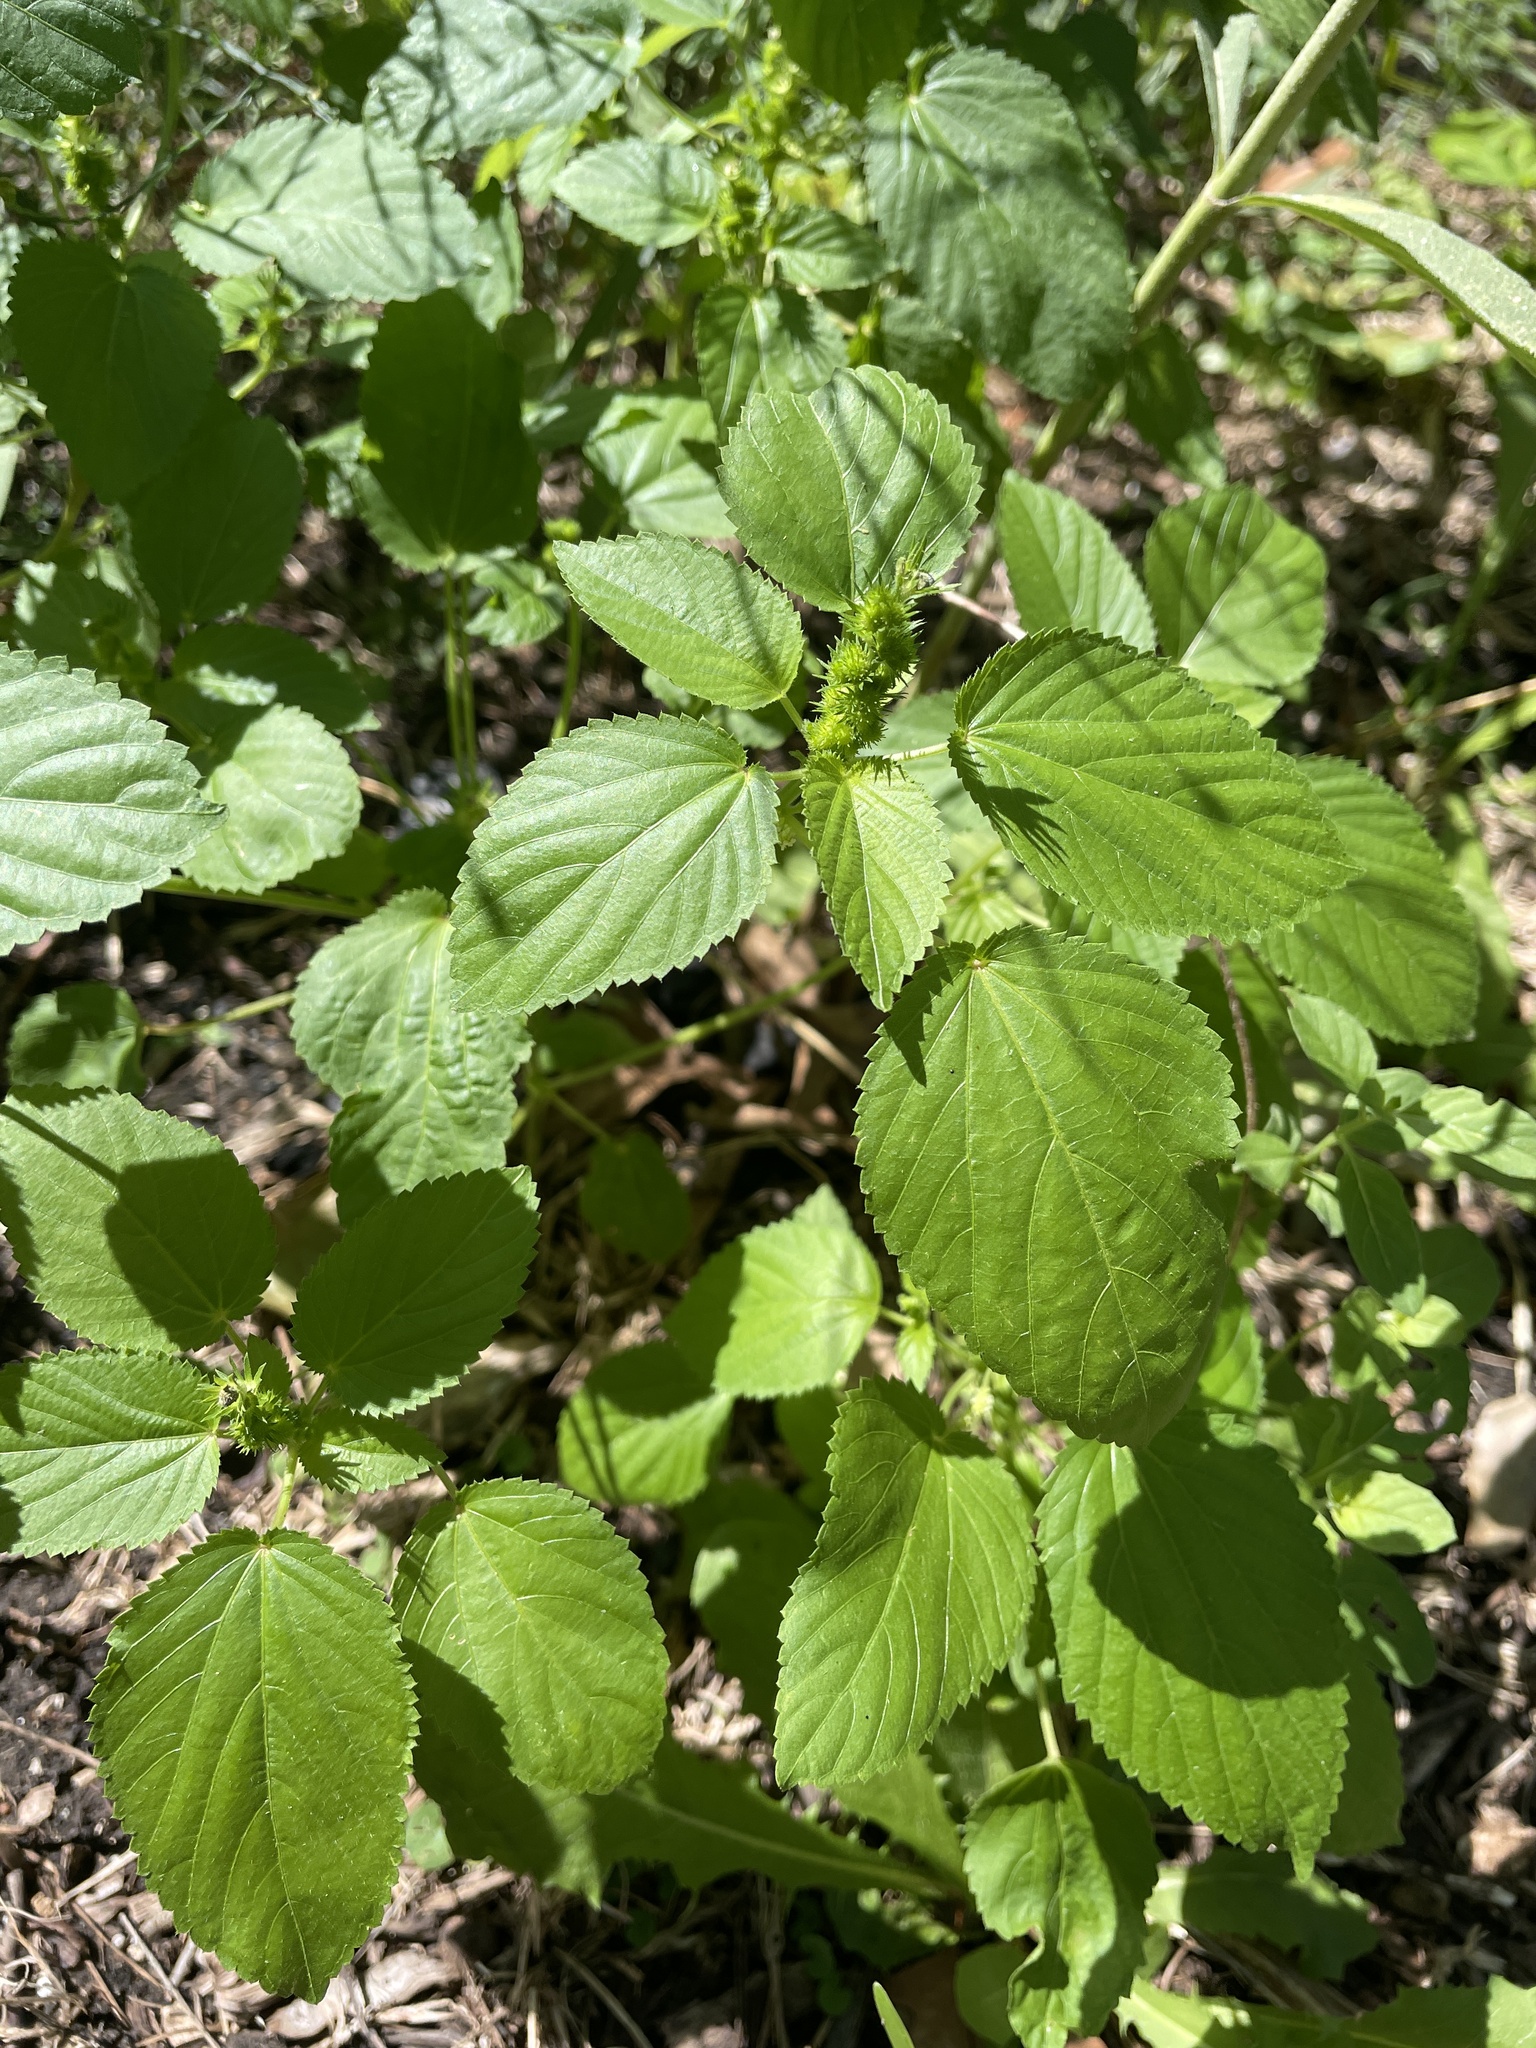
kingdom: Plantae
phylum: Tracheophyta
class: Magnoliopsida
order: Malpighiales
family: Euphorbiaceae
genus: Acalypha
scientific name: Acalypha ostryifolia
